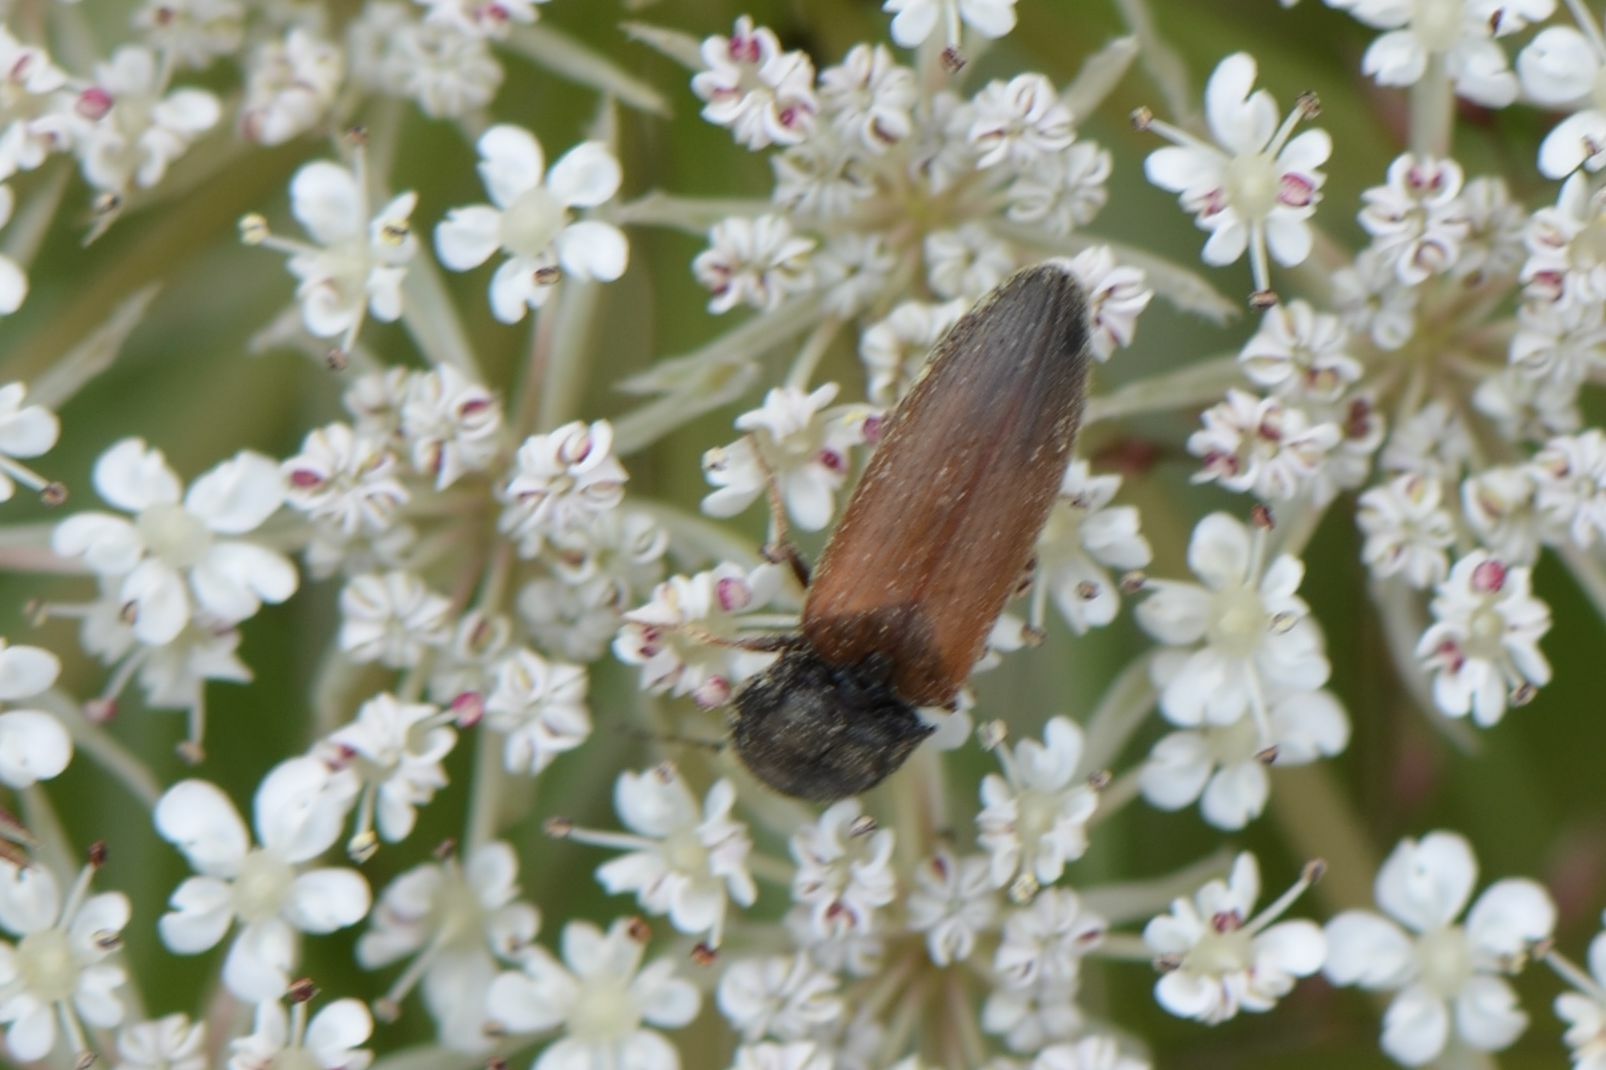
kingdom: Animalia
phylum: Arthropoda
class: Insecta
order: Coleoptera
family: Elateridae
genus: Agriotes
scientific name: Agriotes ustulatus
